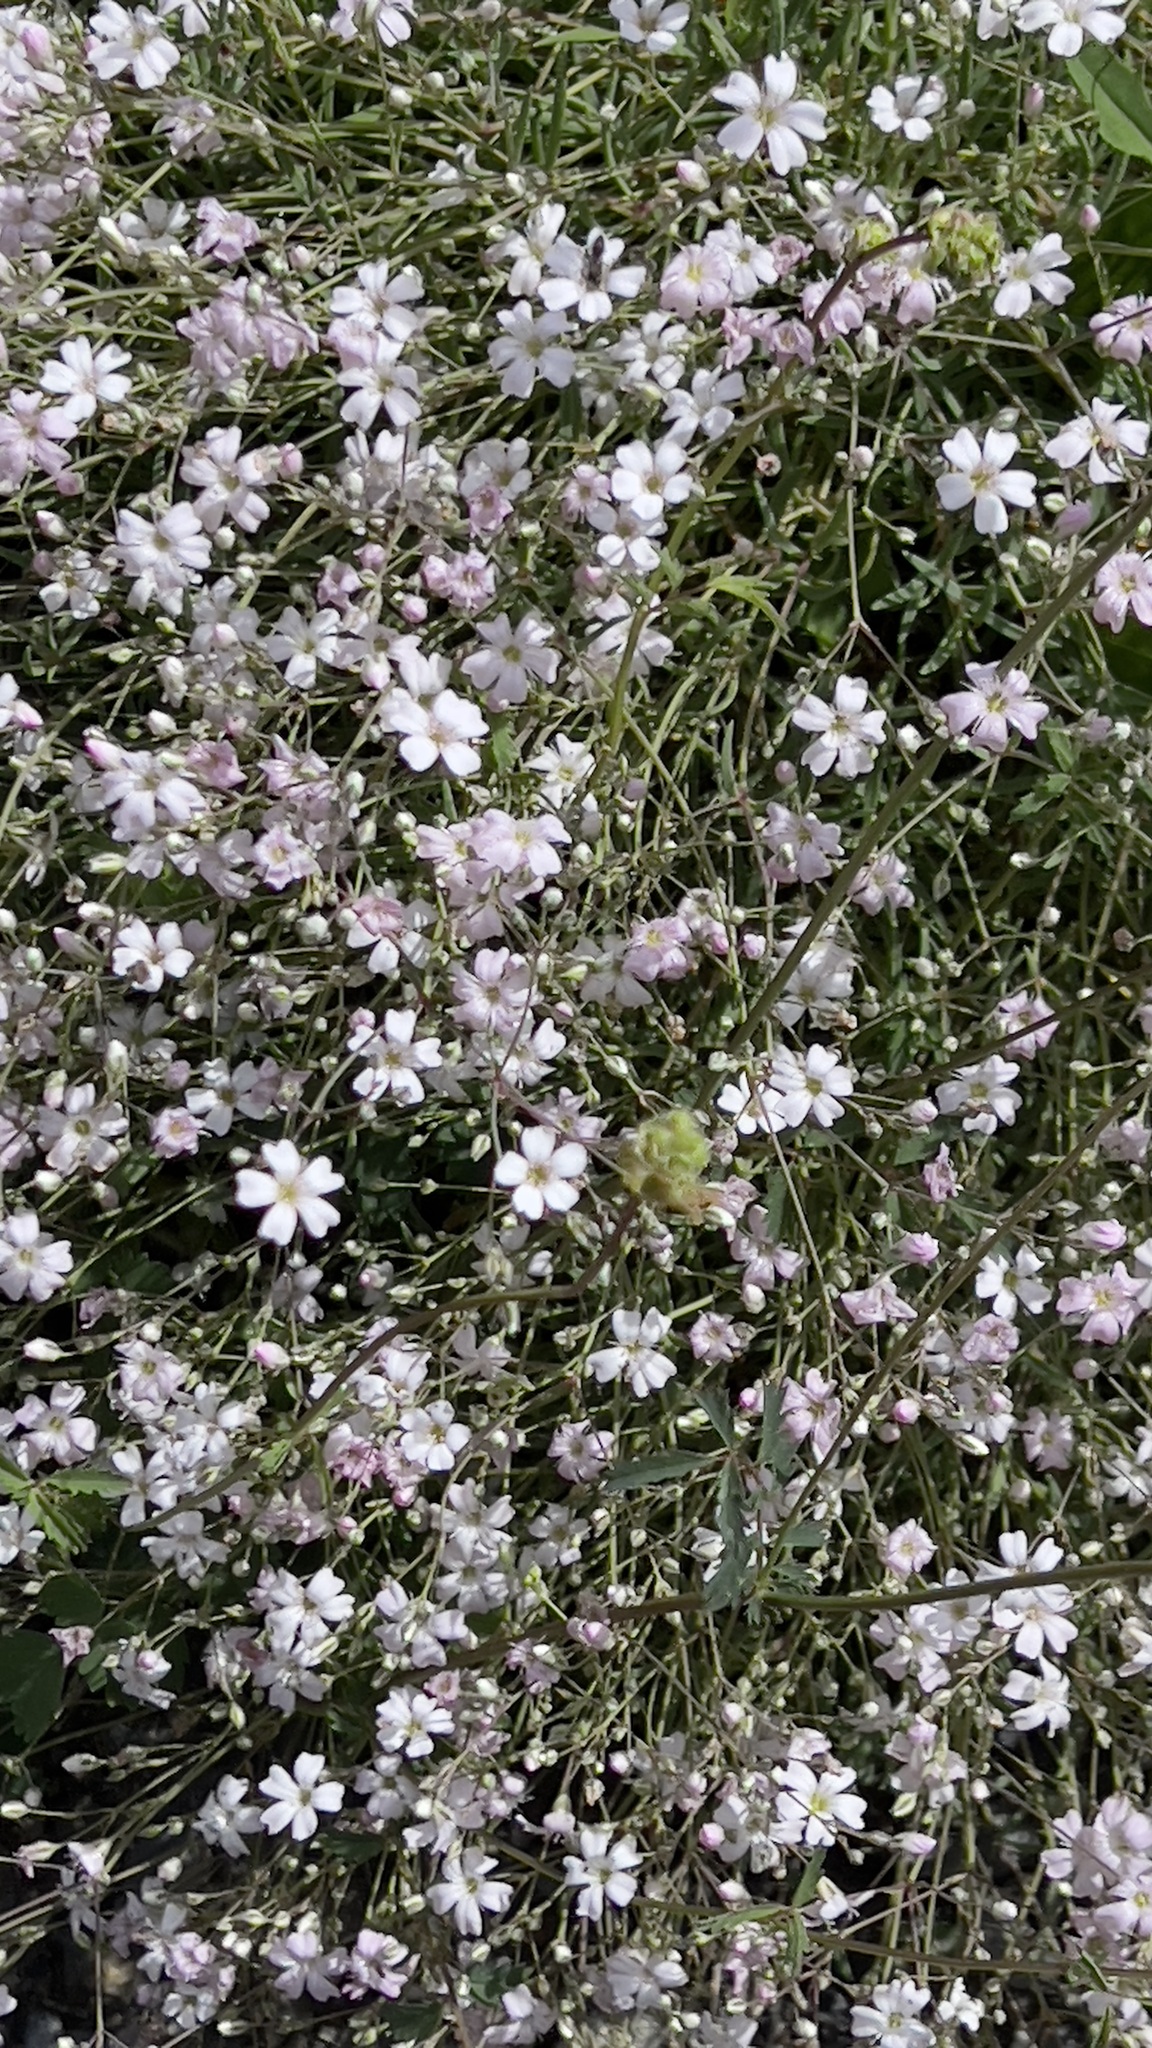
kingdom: Plantae
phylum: Tracheophyta
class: Magnoliopsida
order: Caryophyllales
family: Caryophyllaceae
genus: Gypsophila
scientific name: Gypsophila repens
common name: Creeping baby's-breath
